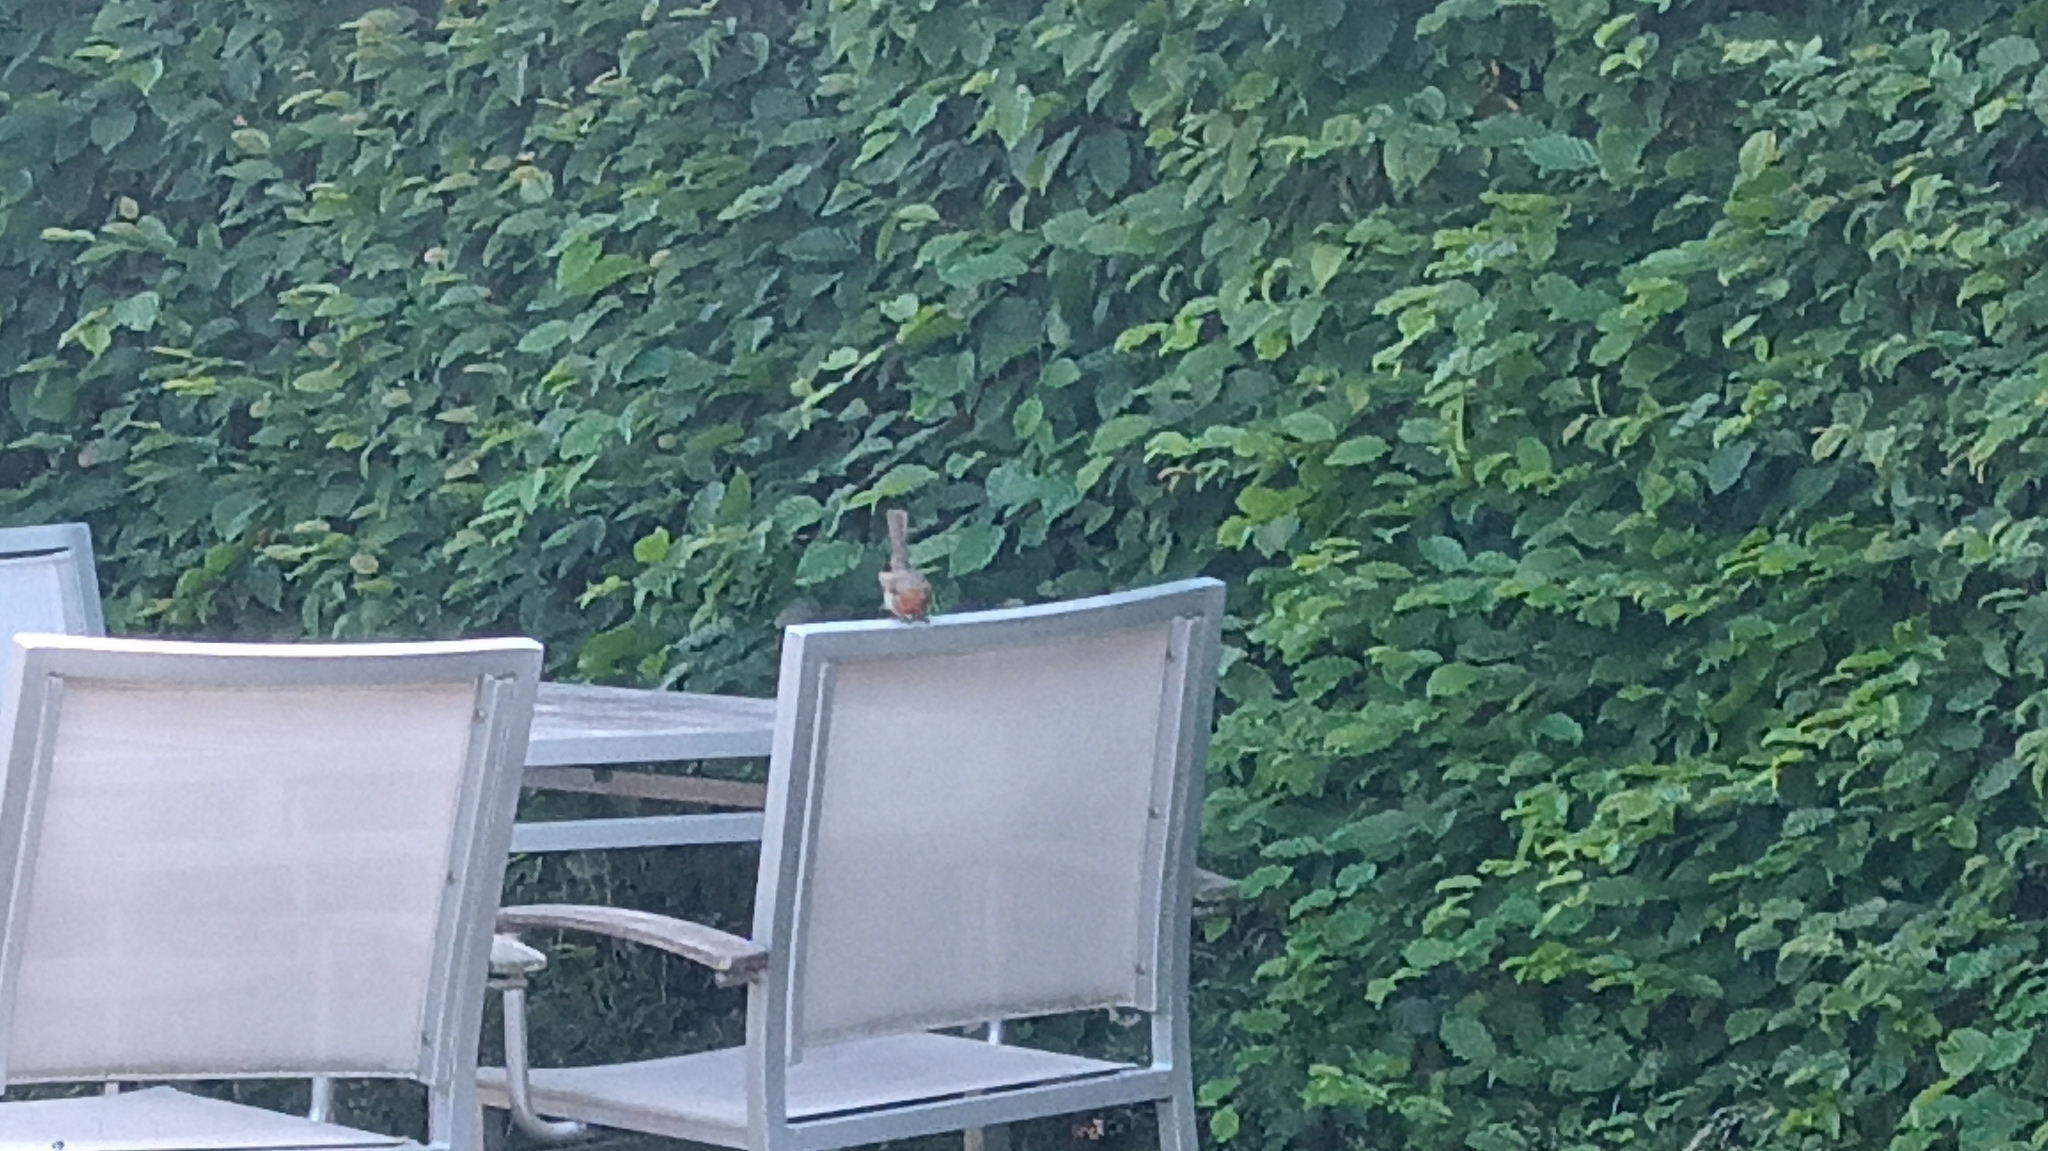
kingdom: Animalia
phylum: Chordata
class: Aves
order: Passeriformes
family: Muscicapidae
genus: Erithacus
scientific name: Erithacus rubecula
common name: European robin
